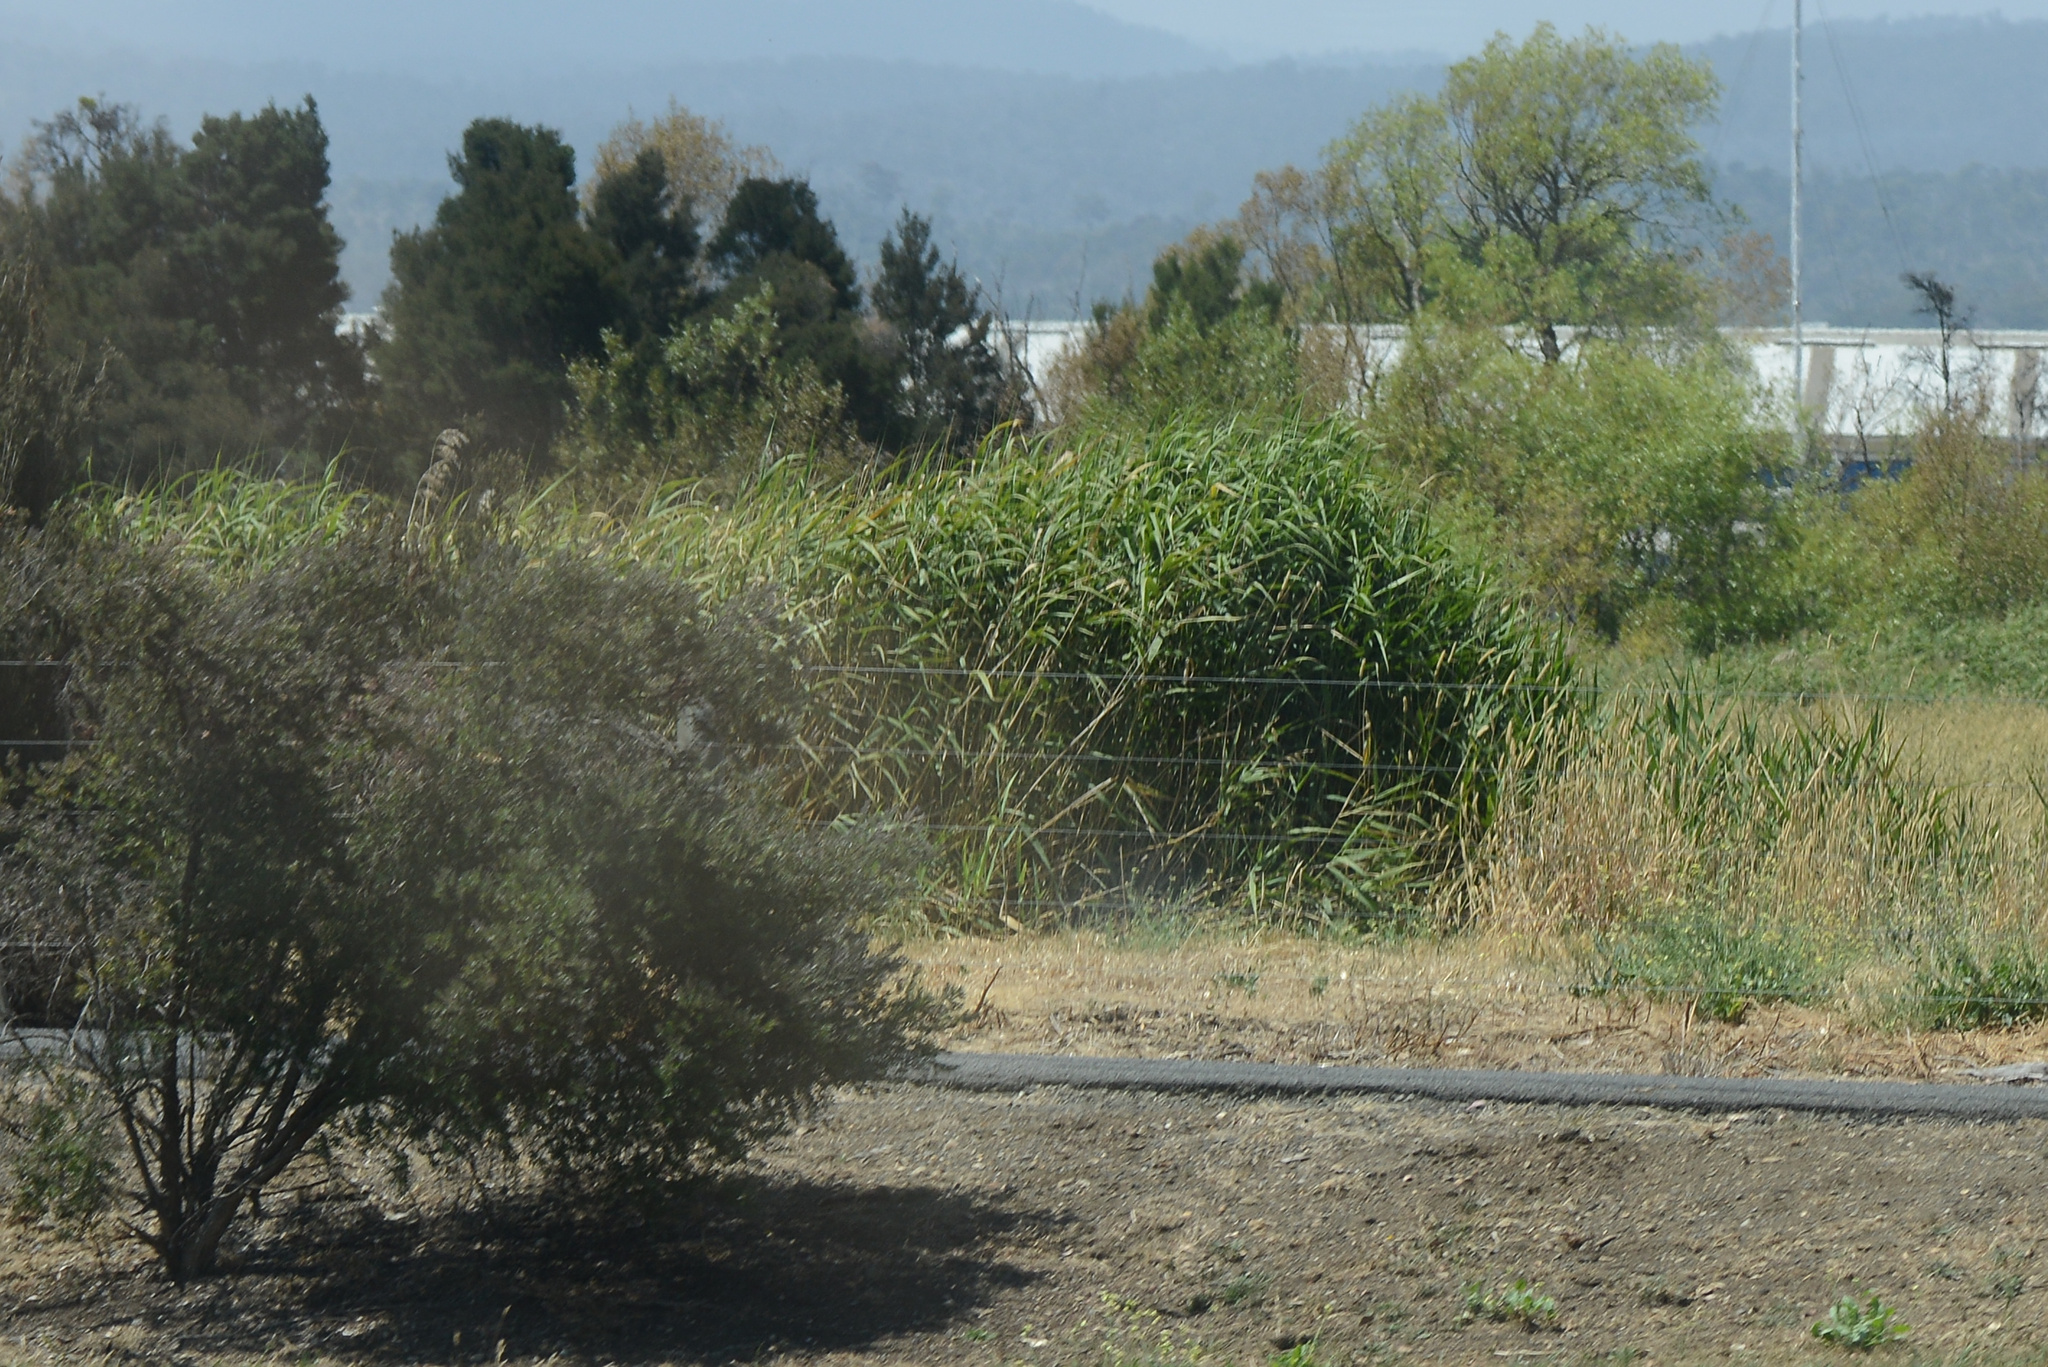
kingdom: Plantae
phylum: Tracheophyta
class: Liliopsida
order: Poales
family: Poaceae
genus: Phragmites
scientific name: Phragmites australis
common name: Common reed
